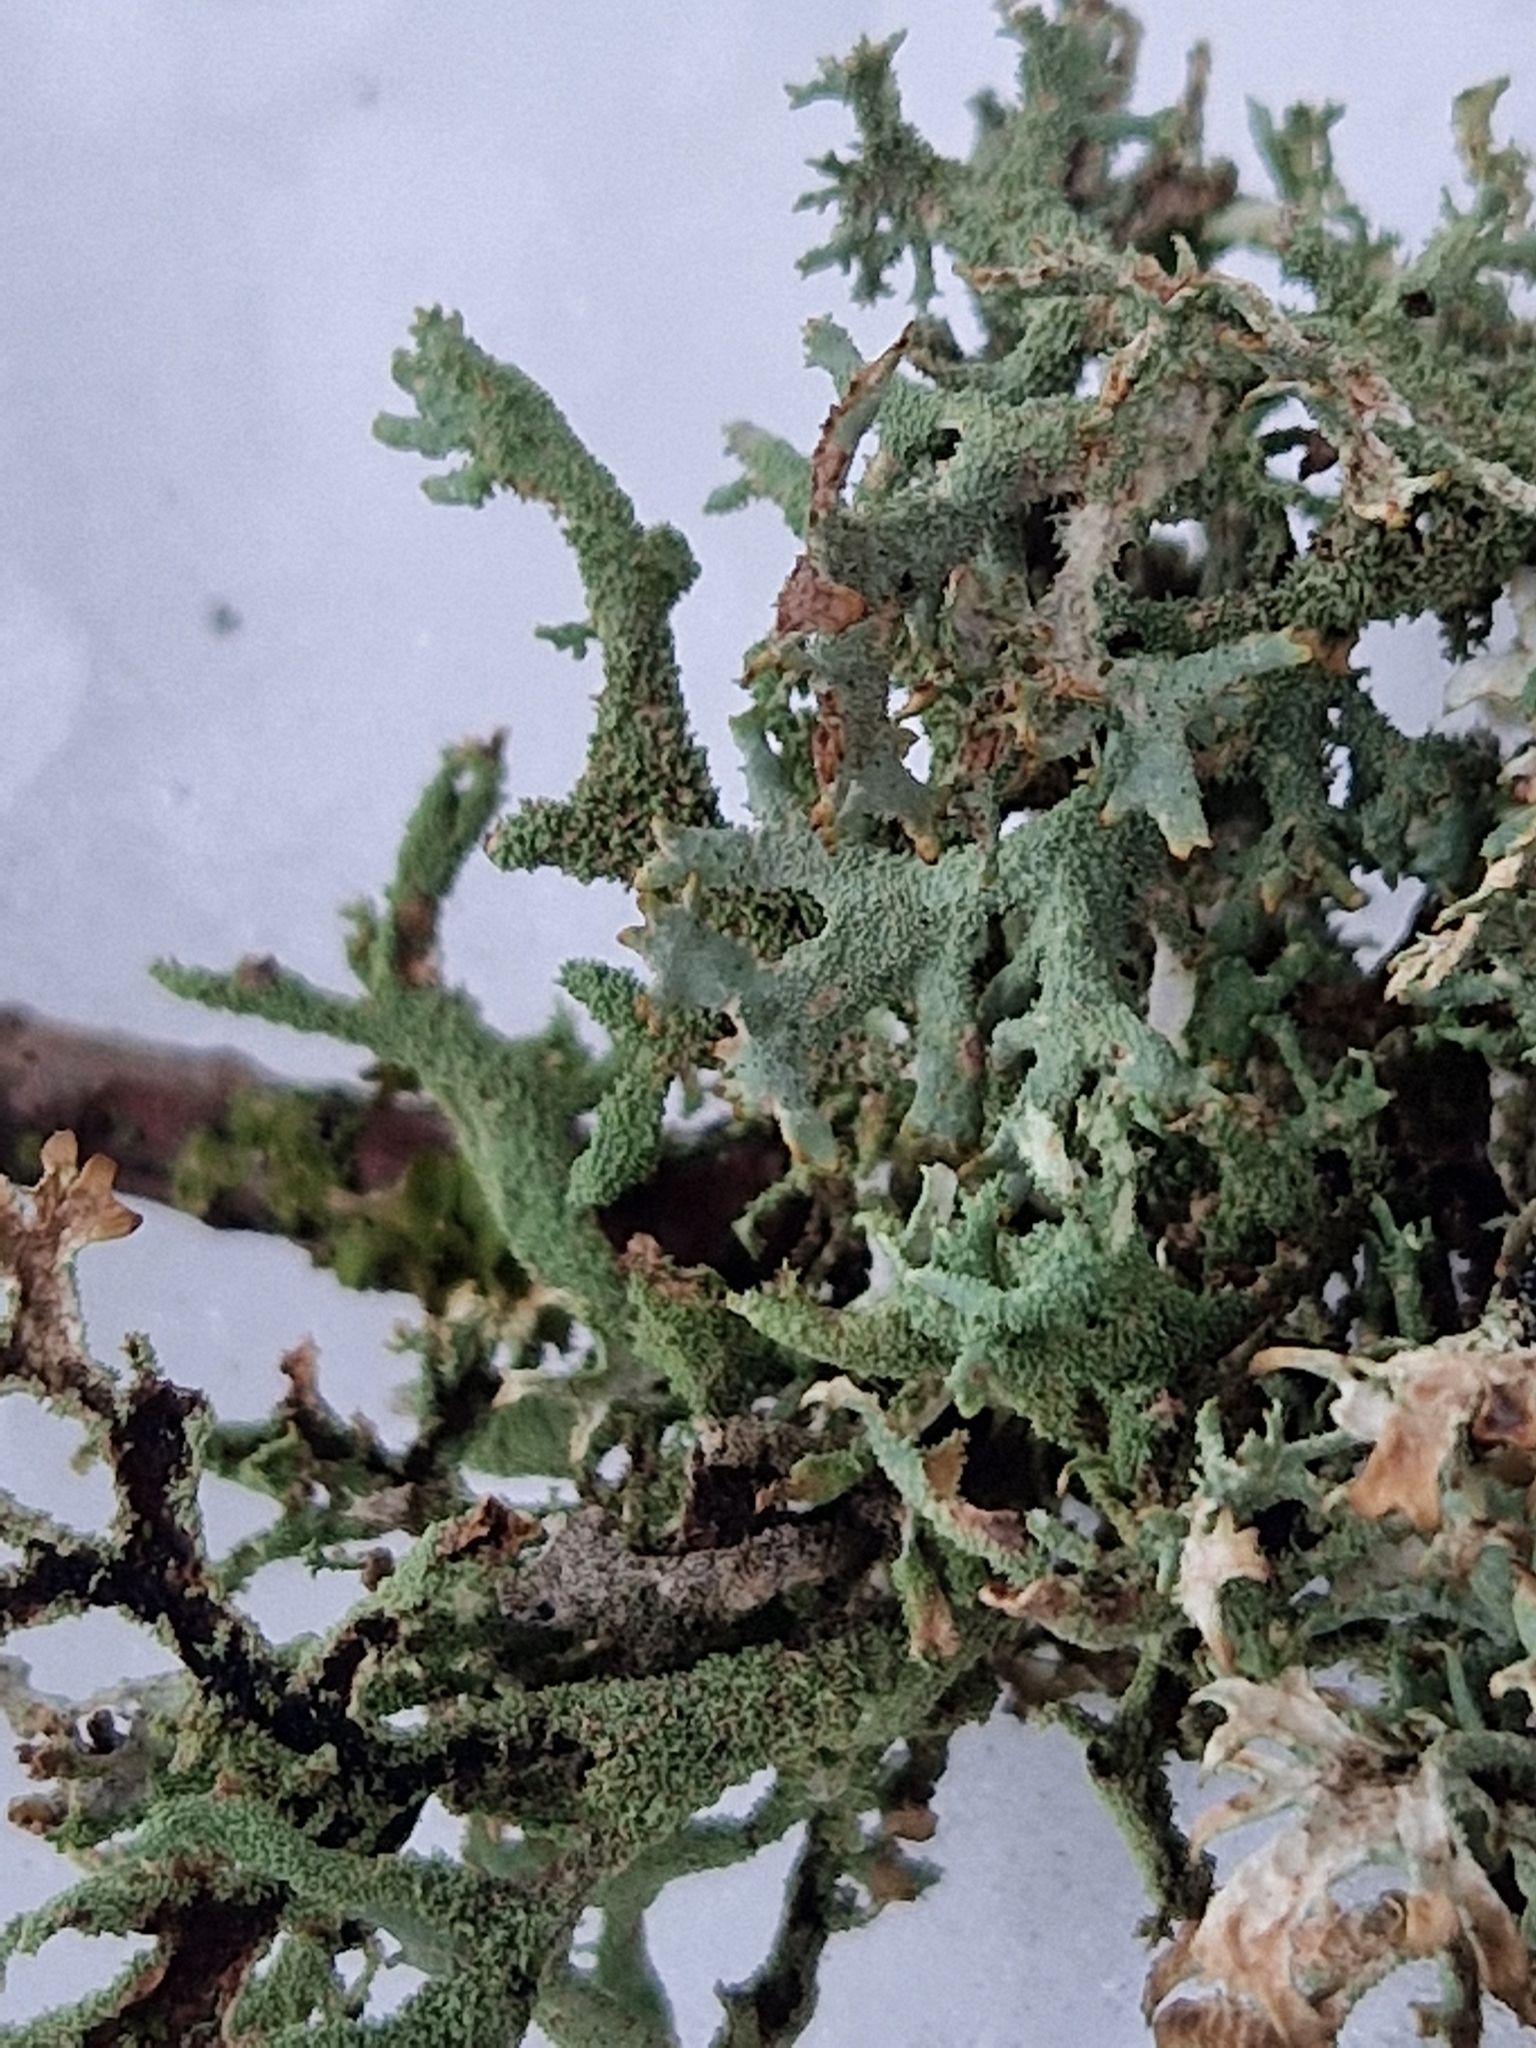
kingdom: Fungi
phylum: Ascomycota
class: Lecanoromycetes
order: Lecanorales
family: Parmeliaceae
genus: Pseudevernia
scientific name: Pseudevernia furfuracea
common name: Tree moss
